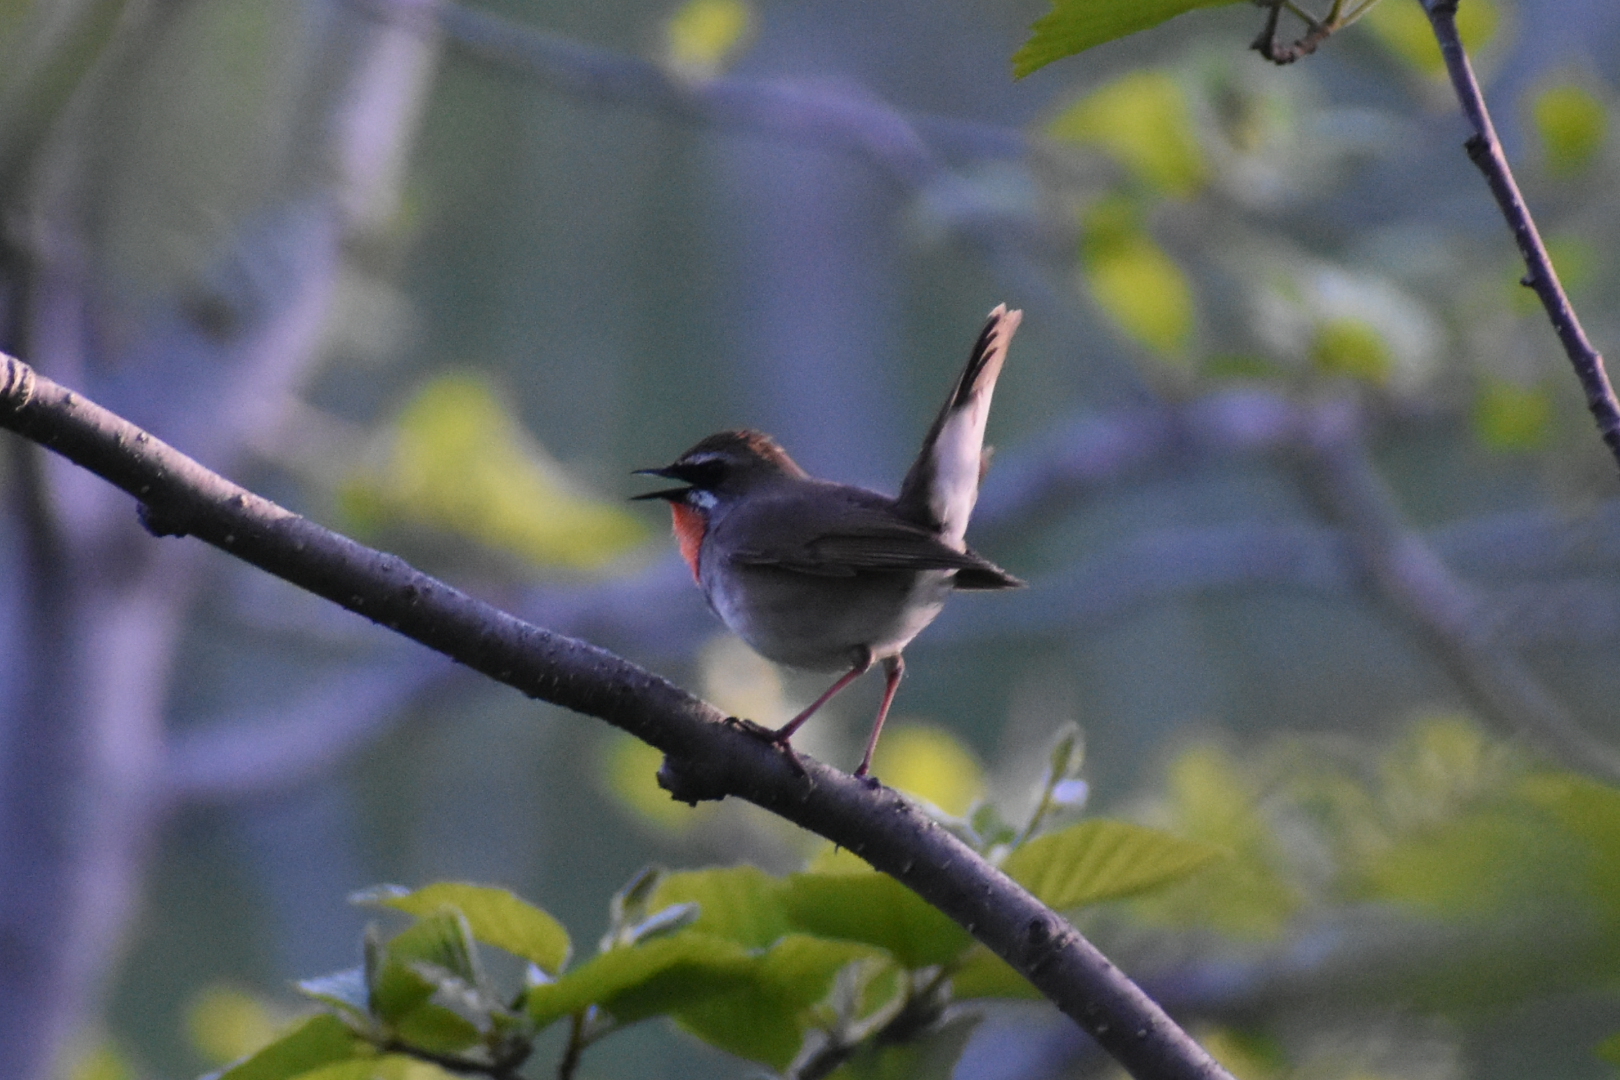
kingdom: Animalia
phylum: Chordata
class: Aves
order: Passeriformes
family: Muscicapidae
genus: Luscinia
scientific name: Luscinia calliope
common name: Siberian rubythroat
